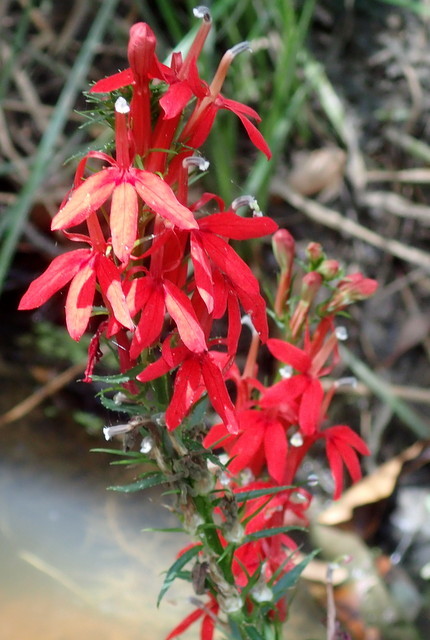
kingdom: Plantae
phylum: Tracheophyta
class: Magnoliopsida
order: Asterales
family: Campanulaceae
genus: Lobelia
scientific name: Lobelia cardinalis
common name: Cardinal flower
